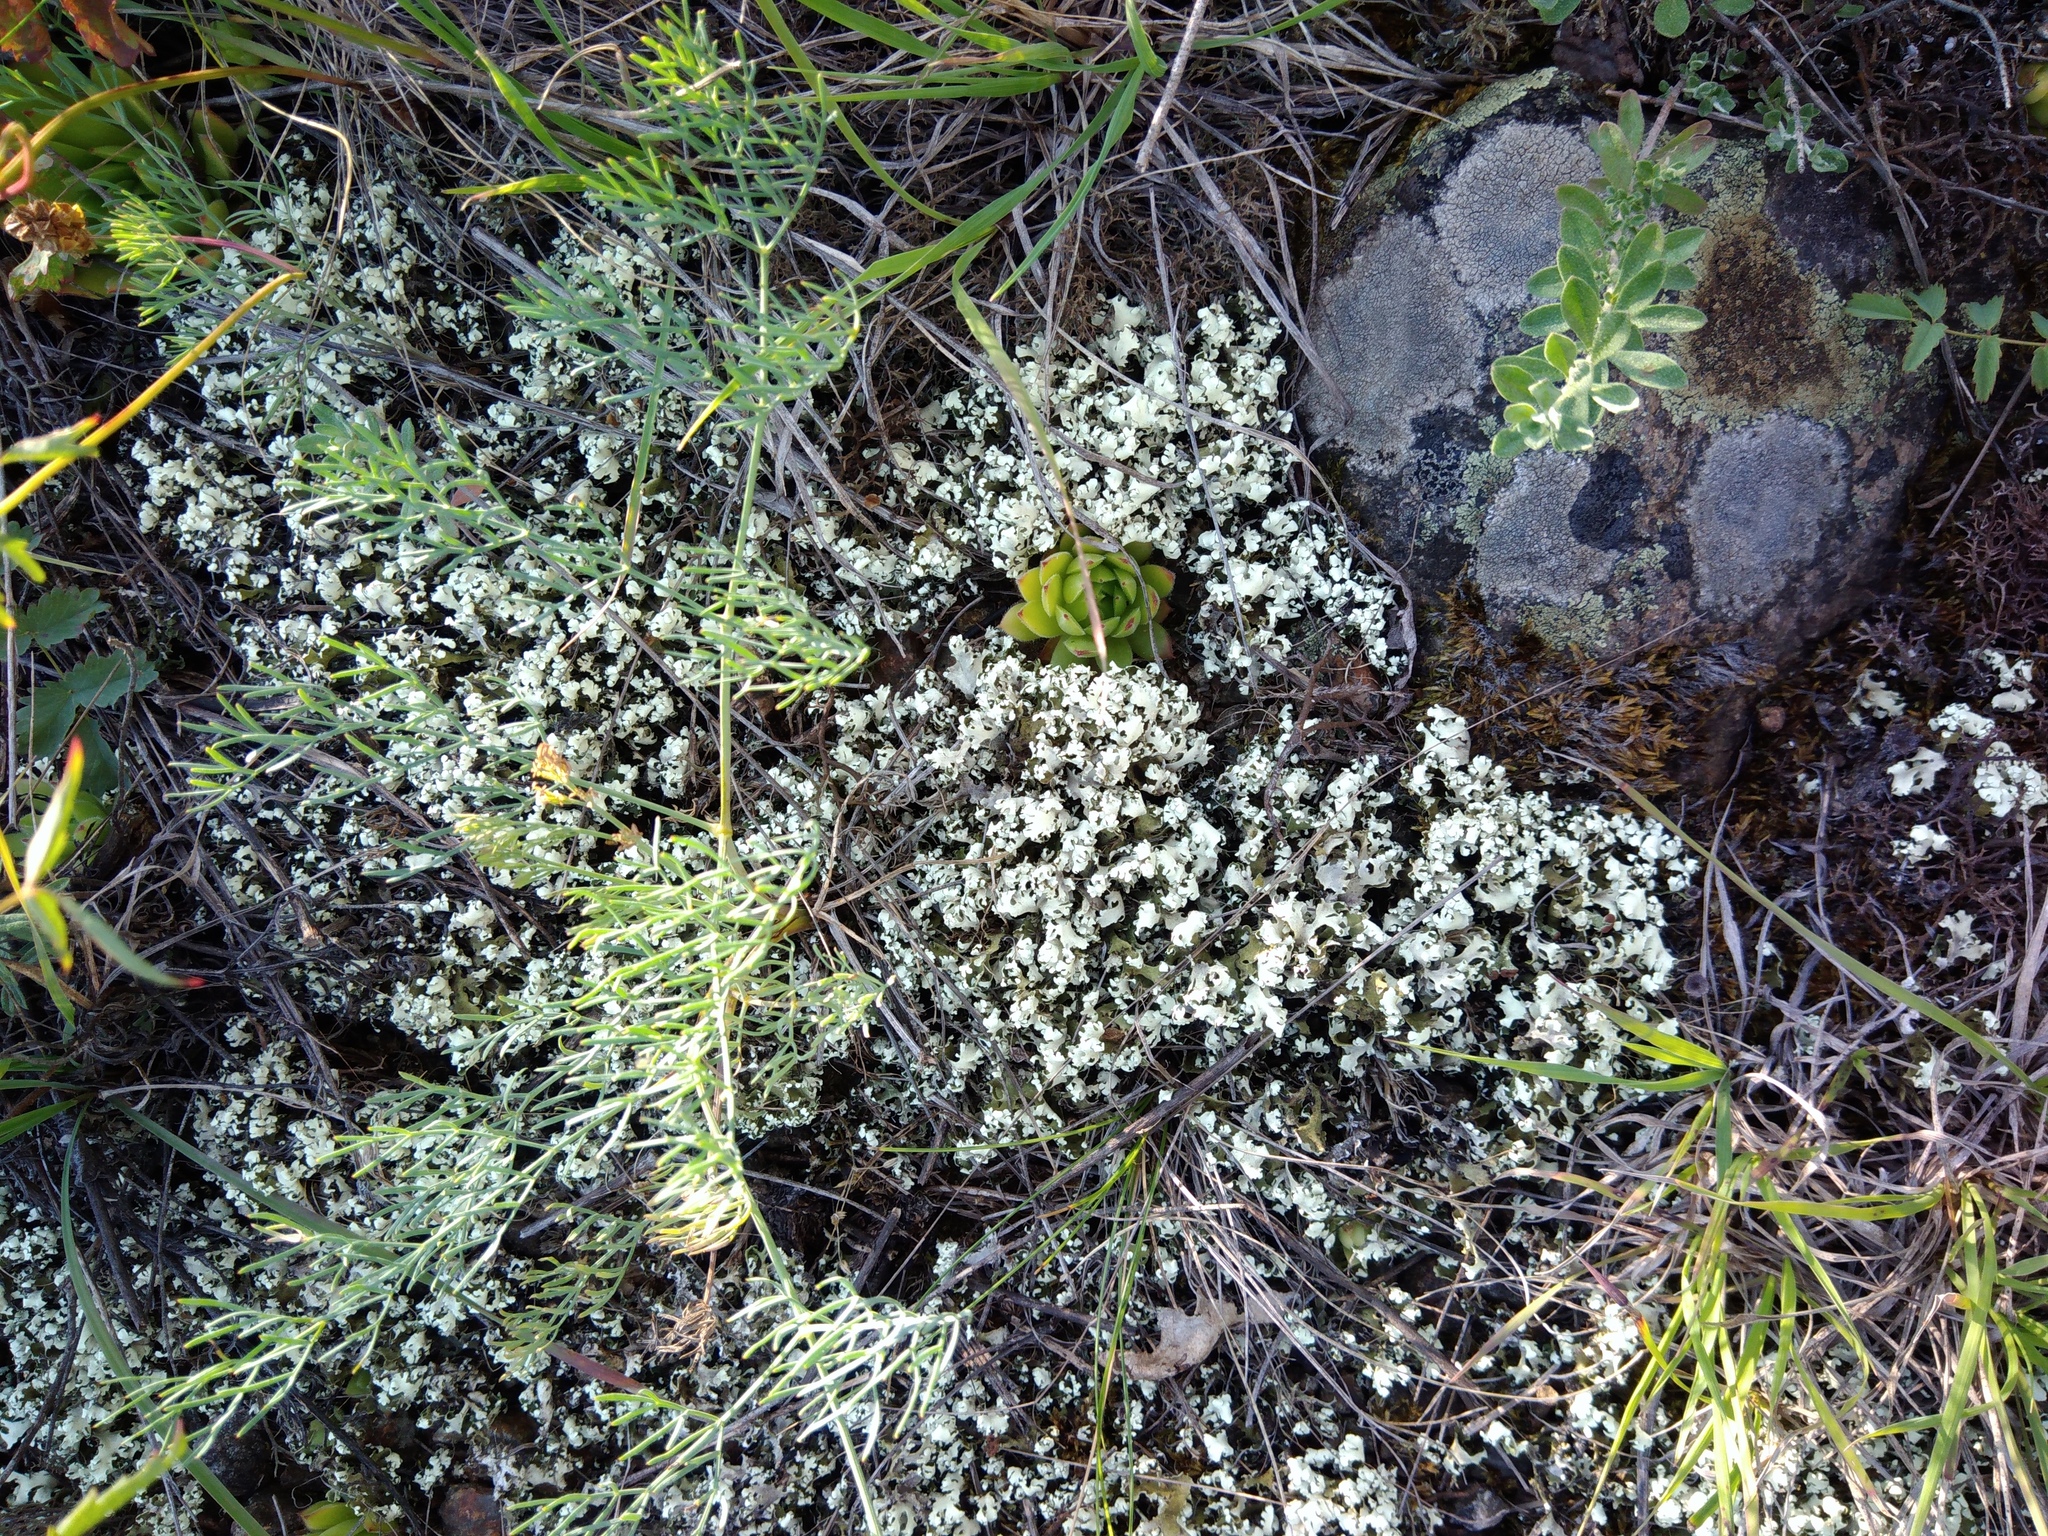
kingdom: Fungi
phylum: Ascomycota
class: Lecanoromycetes
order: Lecanorales
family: Cladoniaceae
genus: Cladonia
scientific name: Cladonia foliacea
